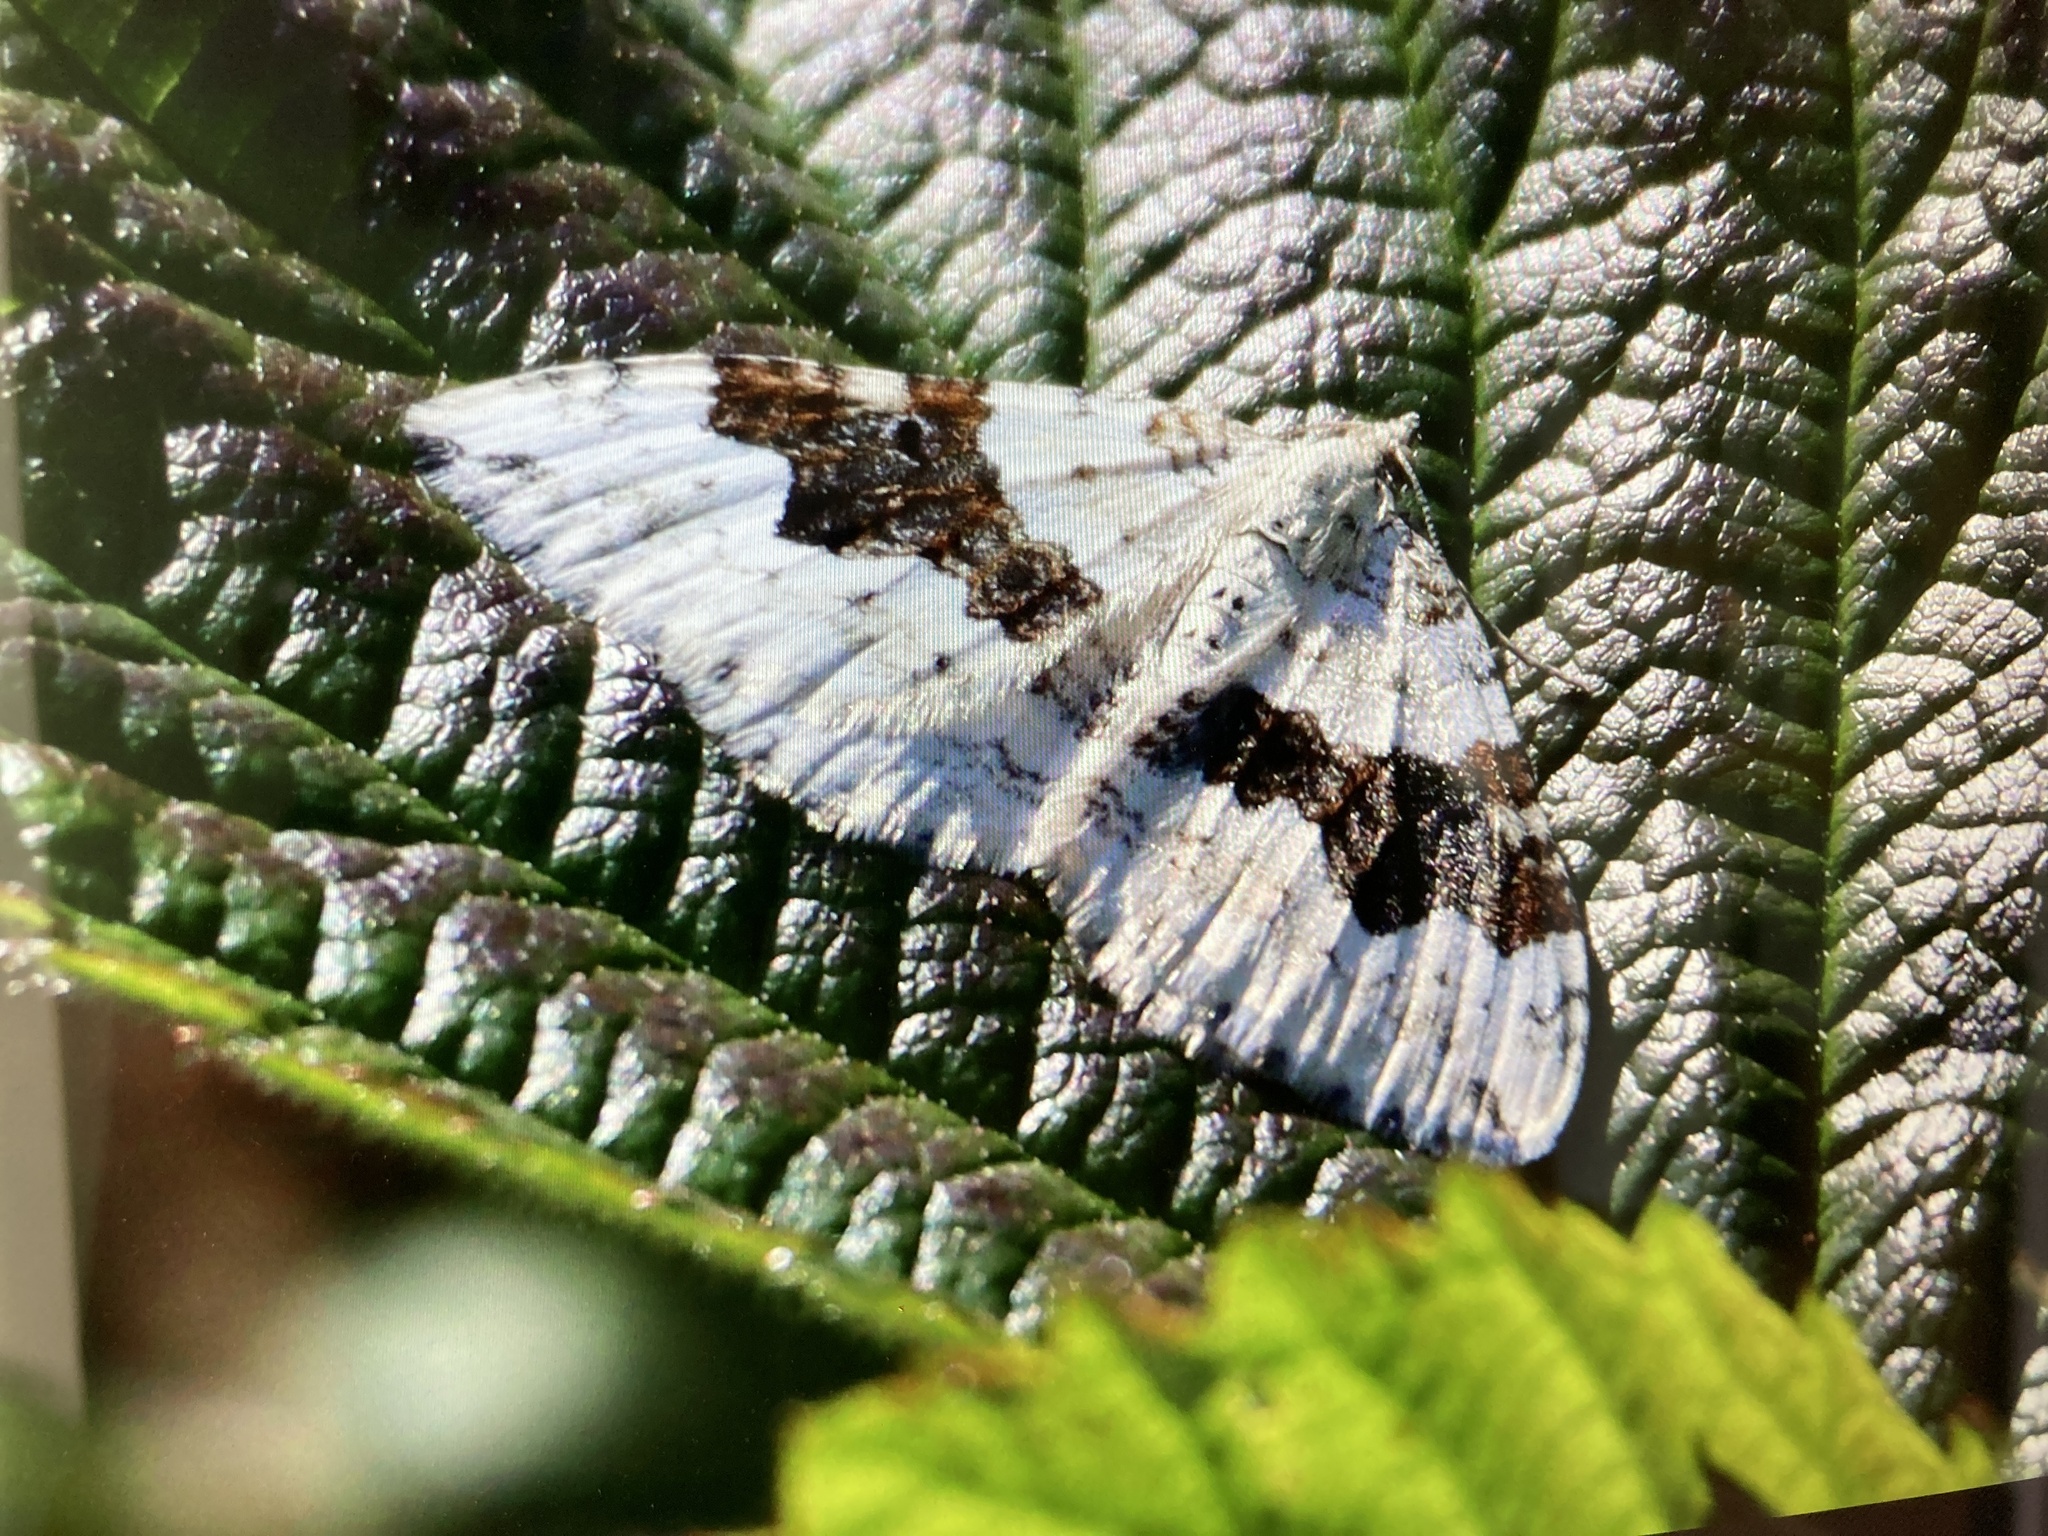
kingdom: Animalia
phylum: Arthropoda
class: Insecta
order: Lepidoptera
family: Geometridae
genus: Xanthorhoe
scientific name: Xanthorhoe montanata
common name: Silver-ground carpet
